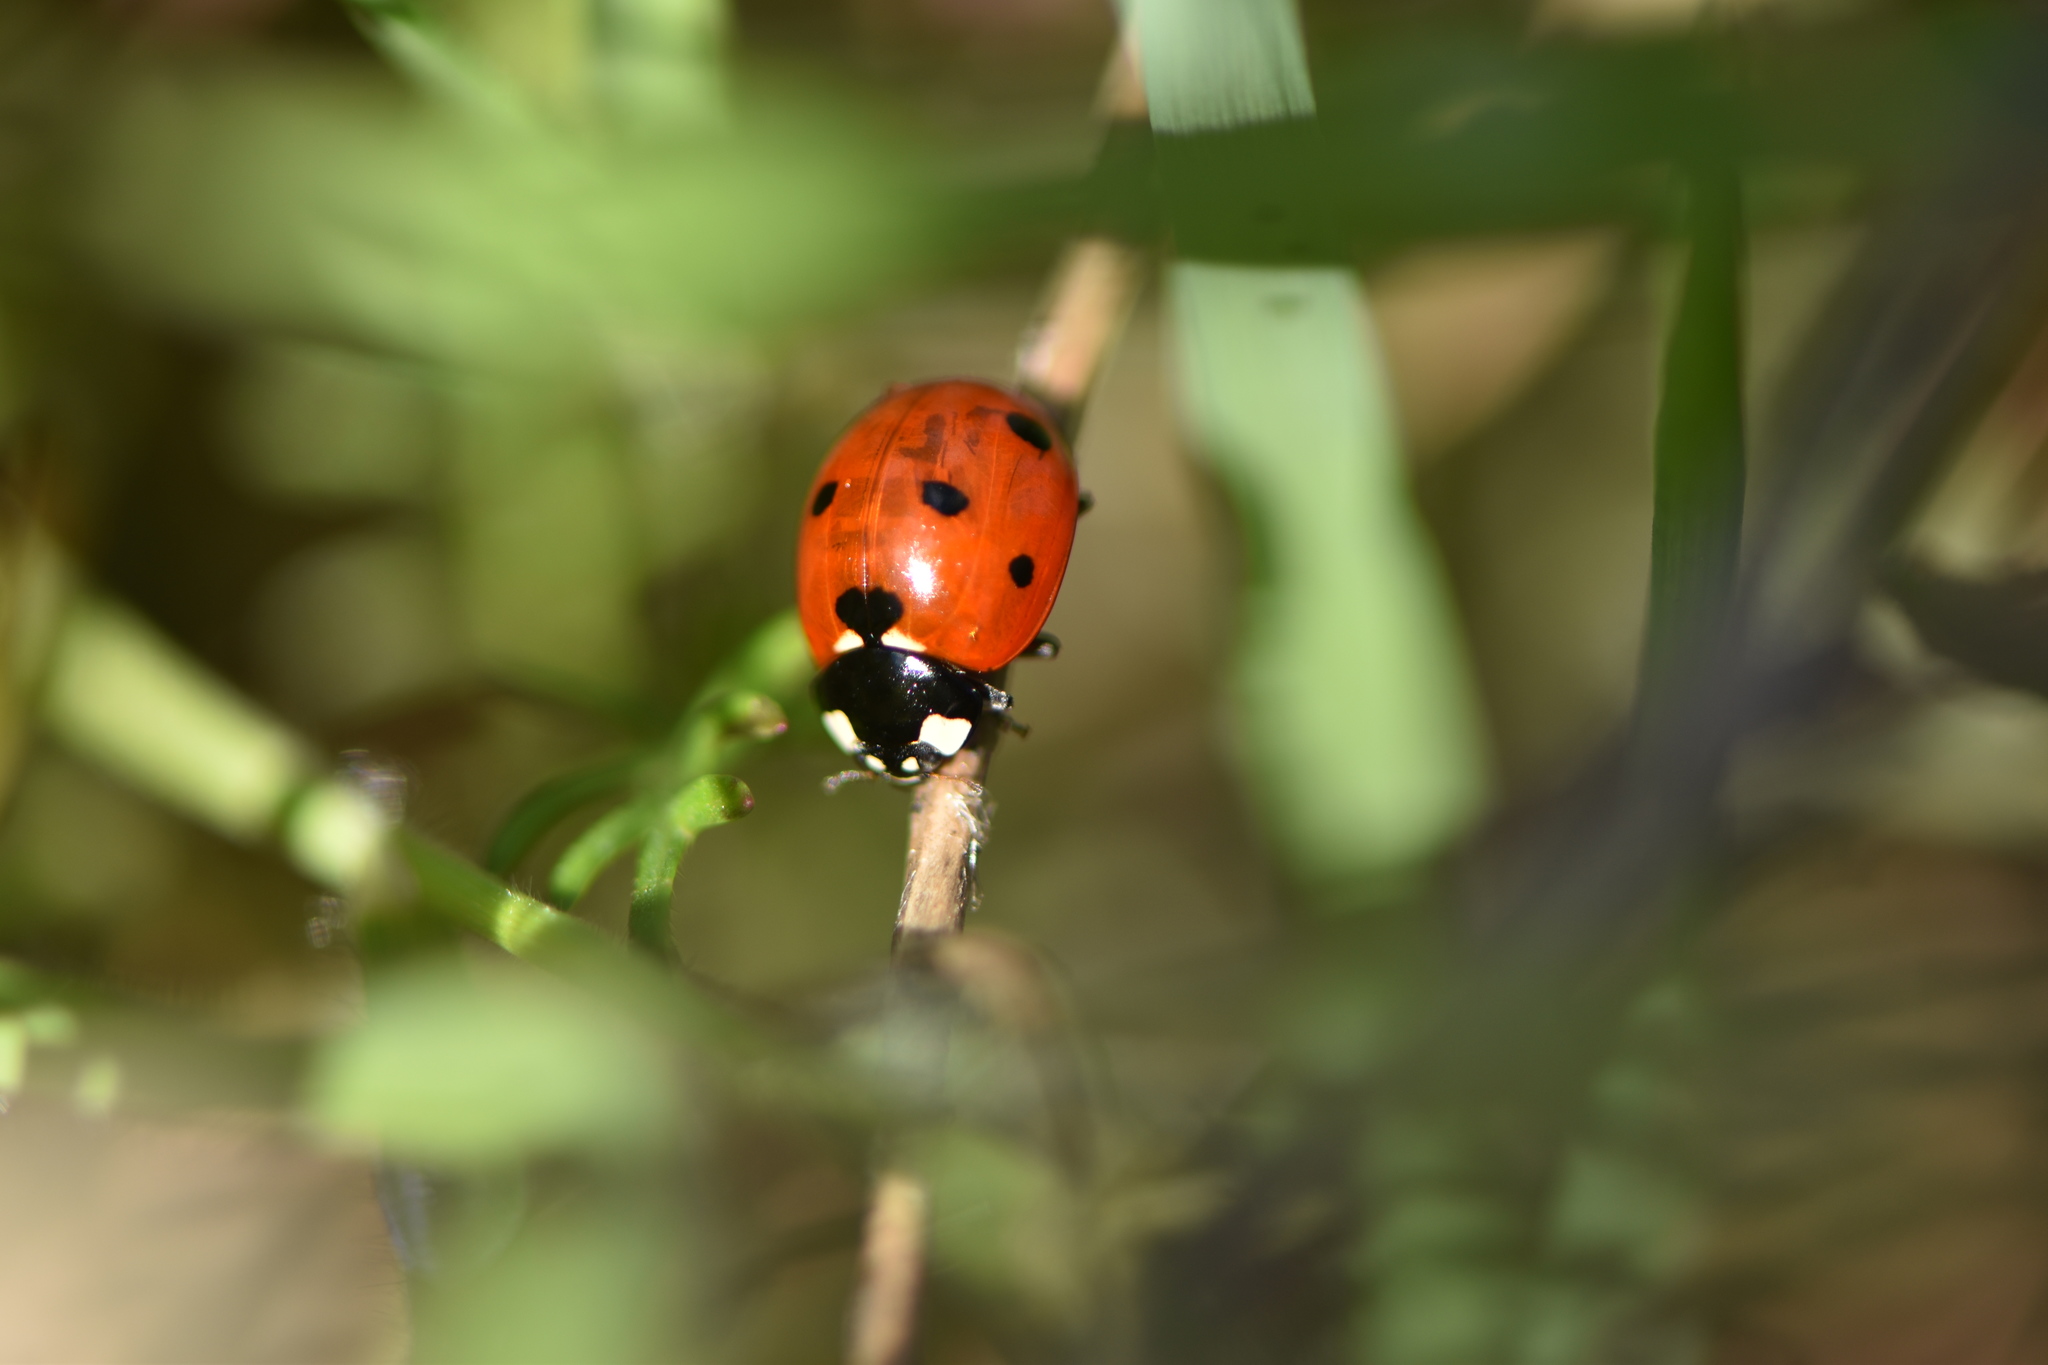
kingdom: Animalia
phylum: Arthropoda
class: Insecta
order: Coleoptera
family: Coccinellidae
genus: Coccinella
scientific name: Coccinella septempunctata
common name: Sevenspotted lady beetle
